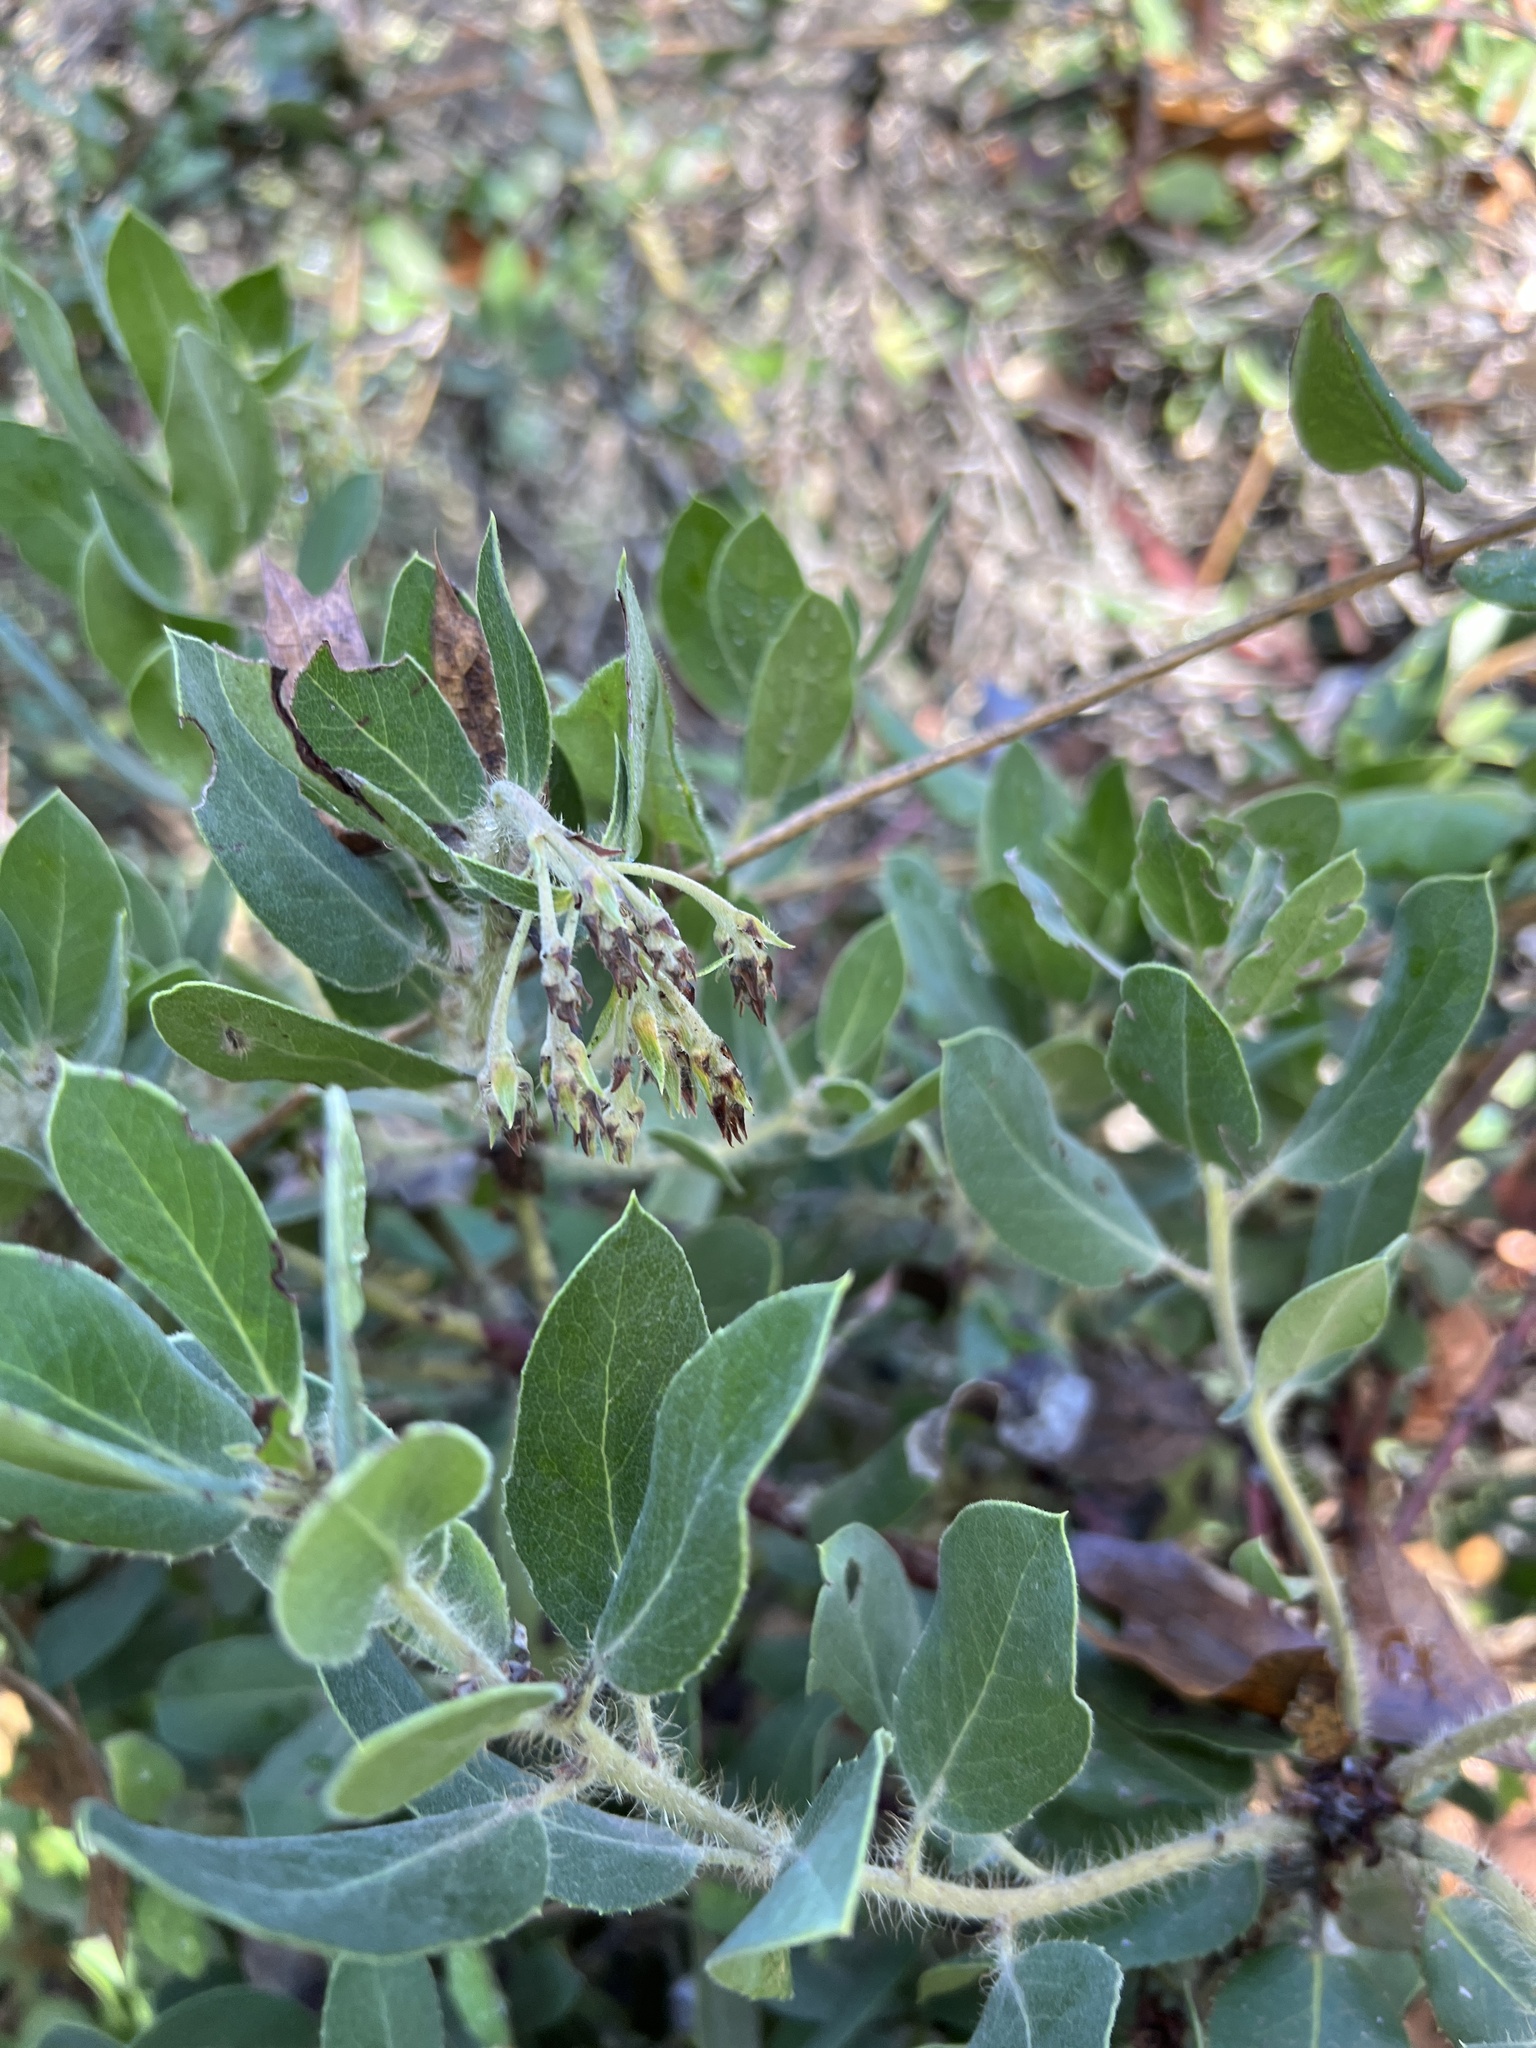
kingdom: Plantae
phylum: Tracheophyta
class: Magnoliopsida
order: Ericales
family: Ericaceae
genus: Arctostaphylos
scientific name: Arctostaphylos crustacea
